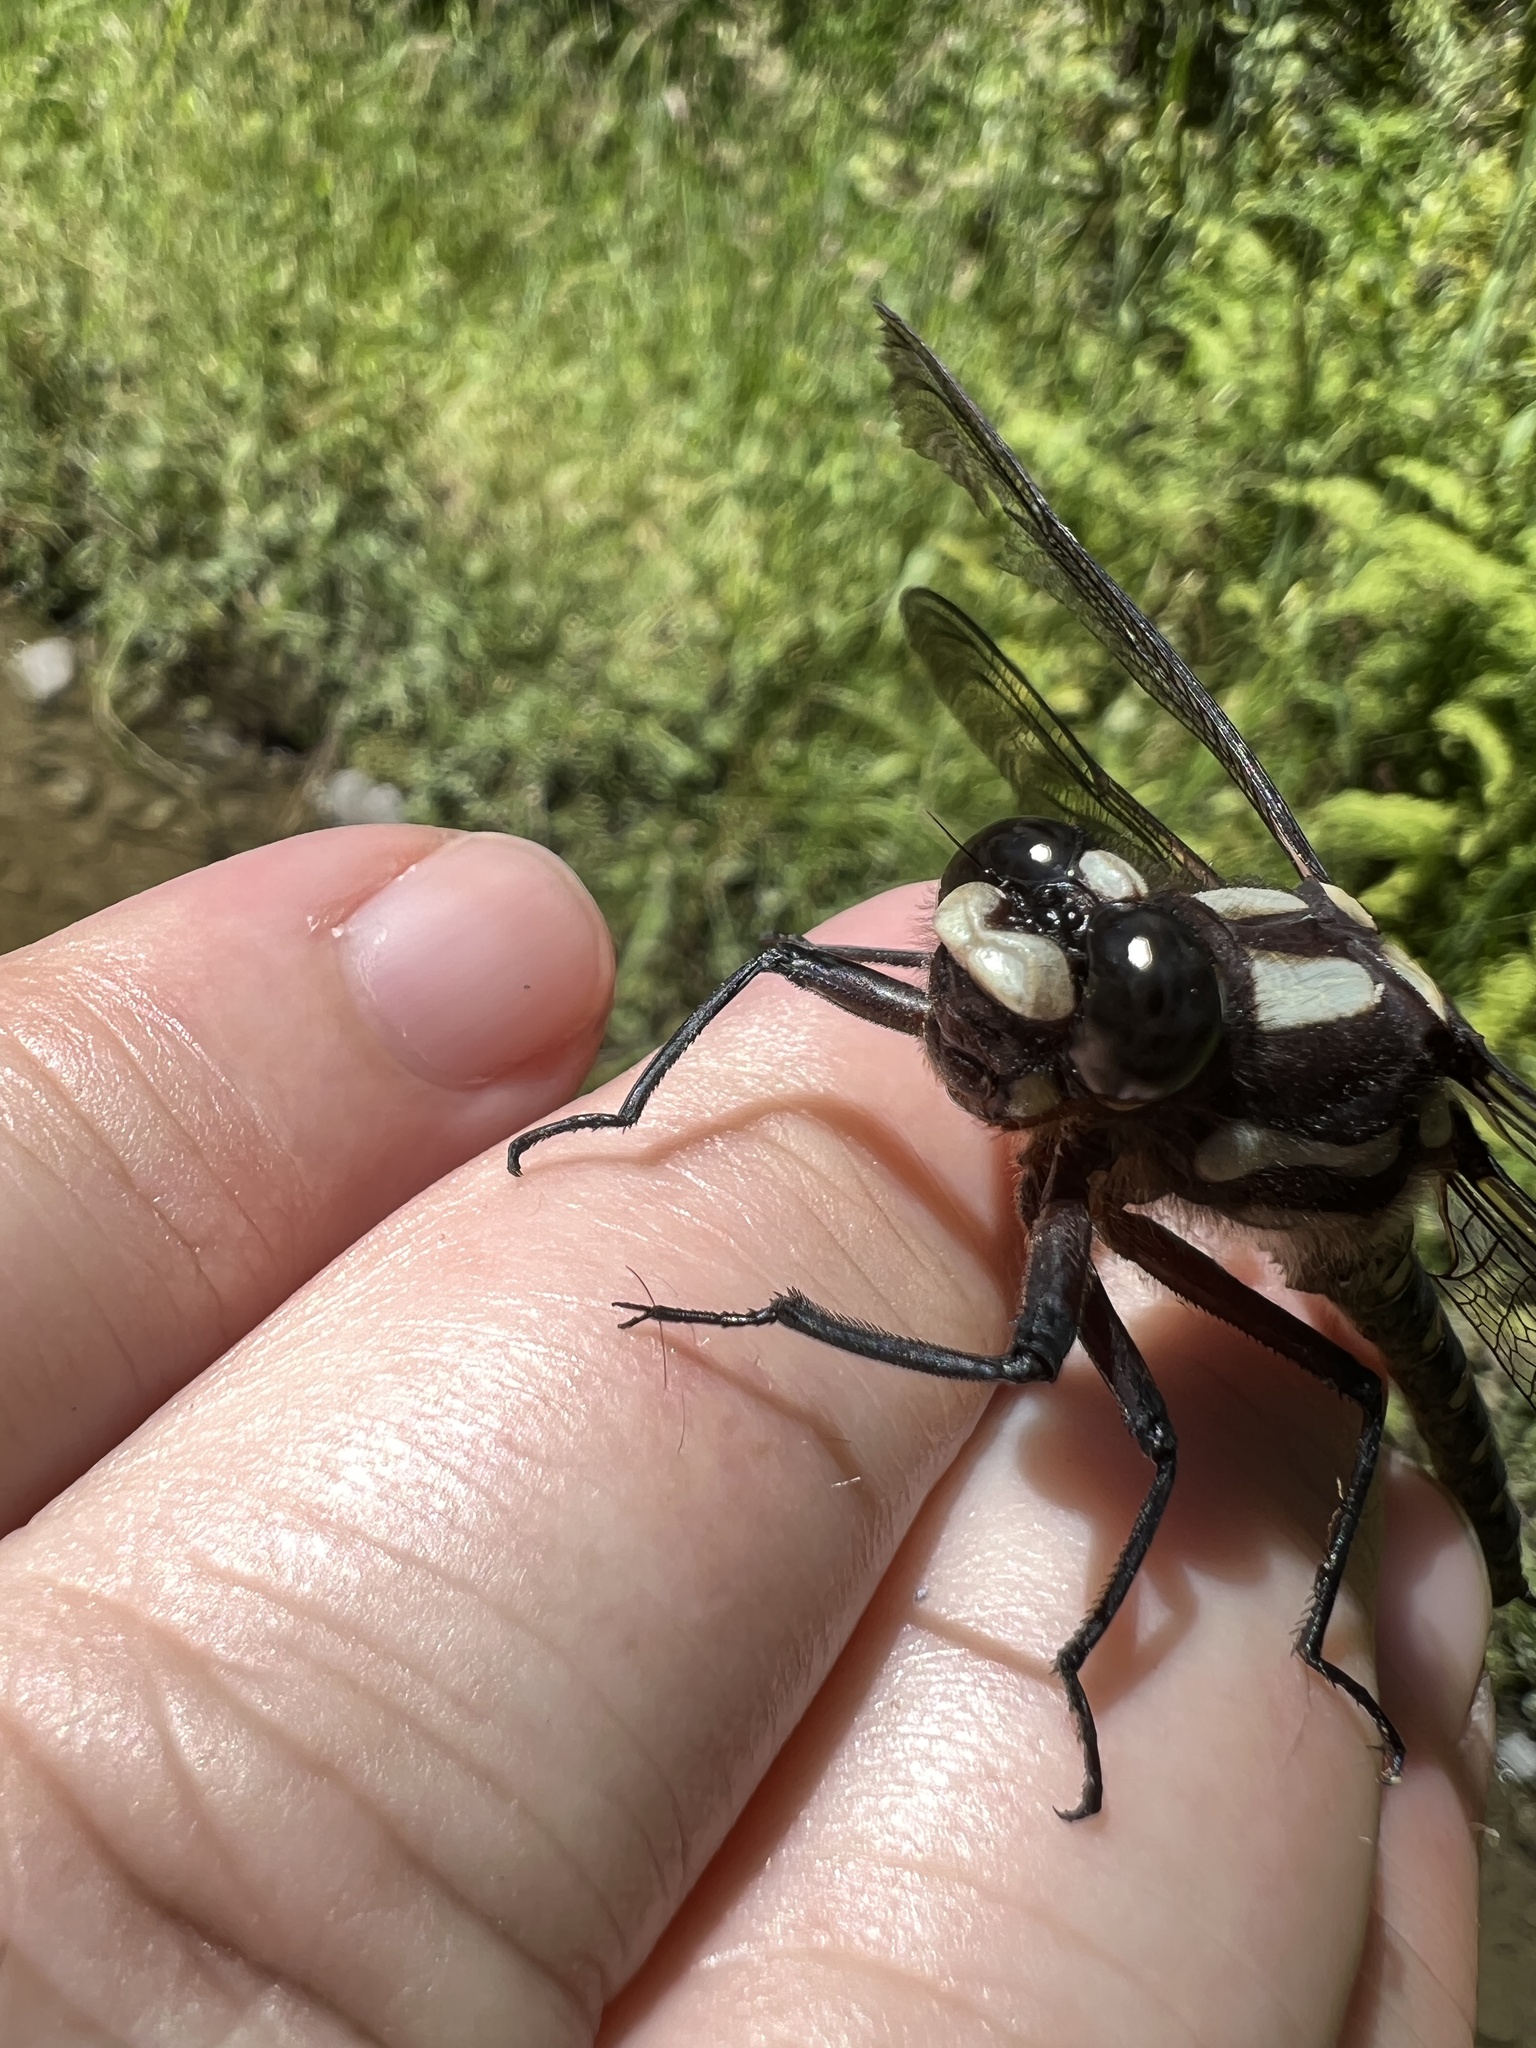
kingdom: Animalia
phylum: Arthropoda
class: Insecta
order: Odonata
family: Petaluridae
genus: Uropetala
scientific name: Uropetala carovei
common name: Bush giant dragonfly
